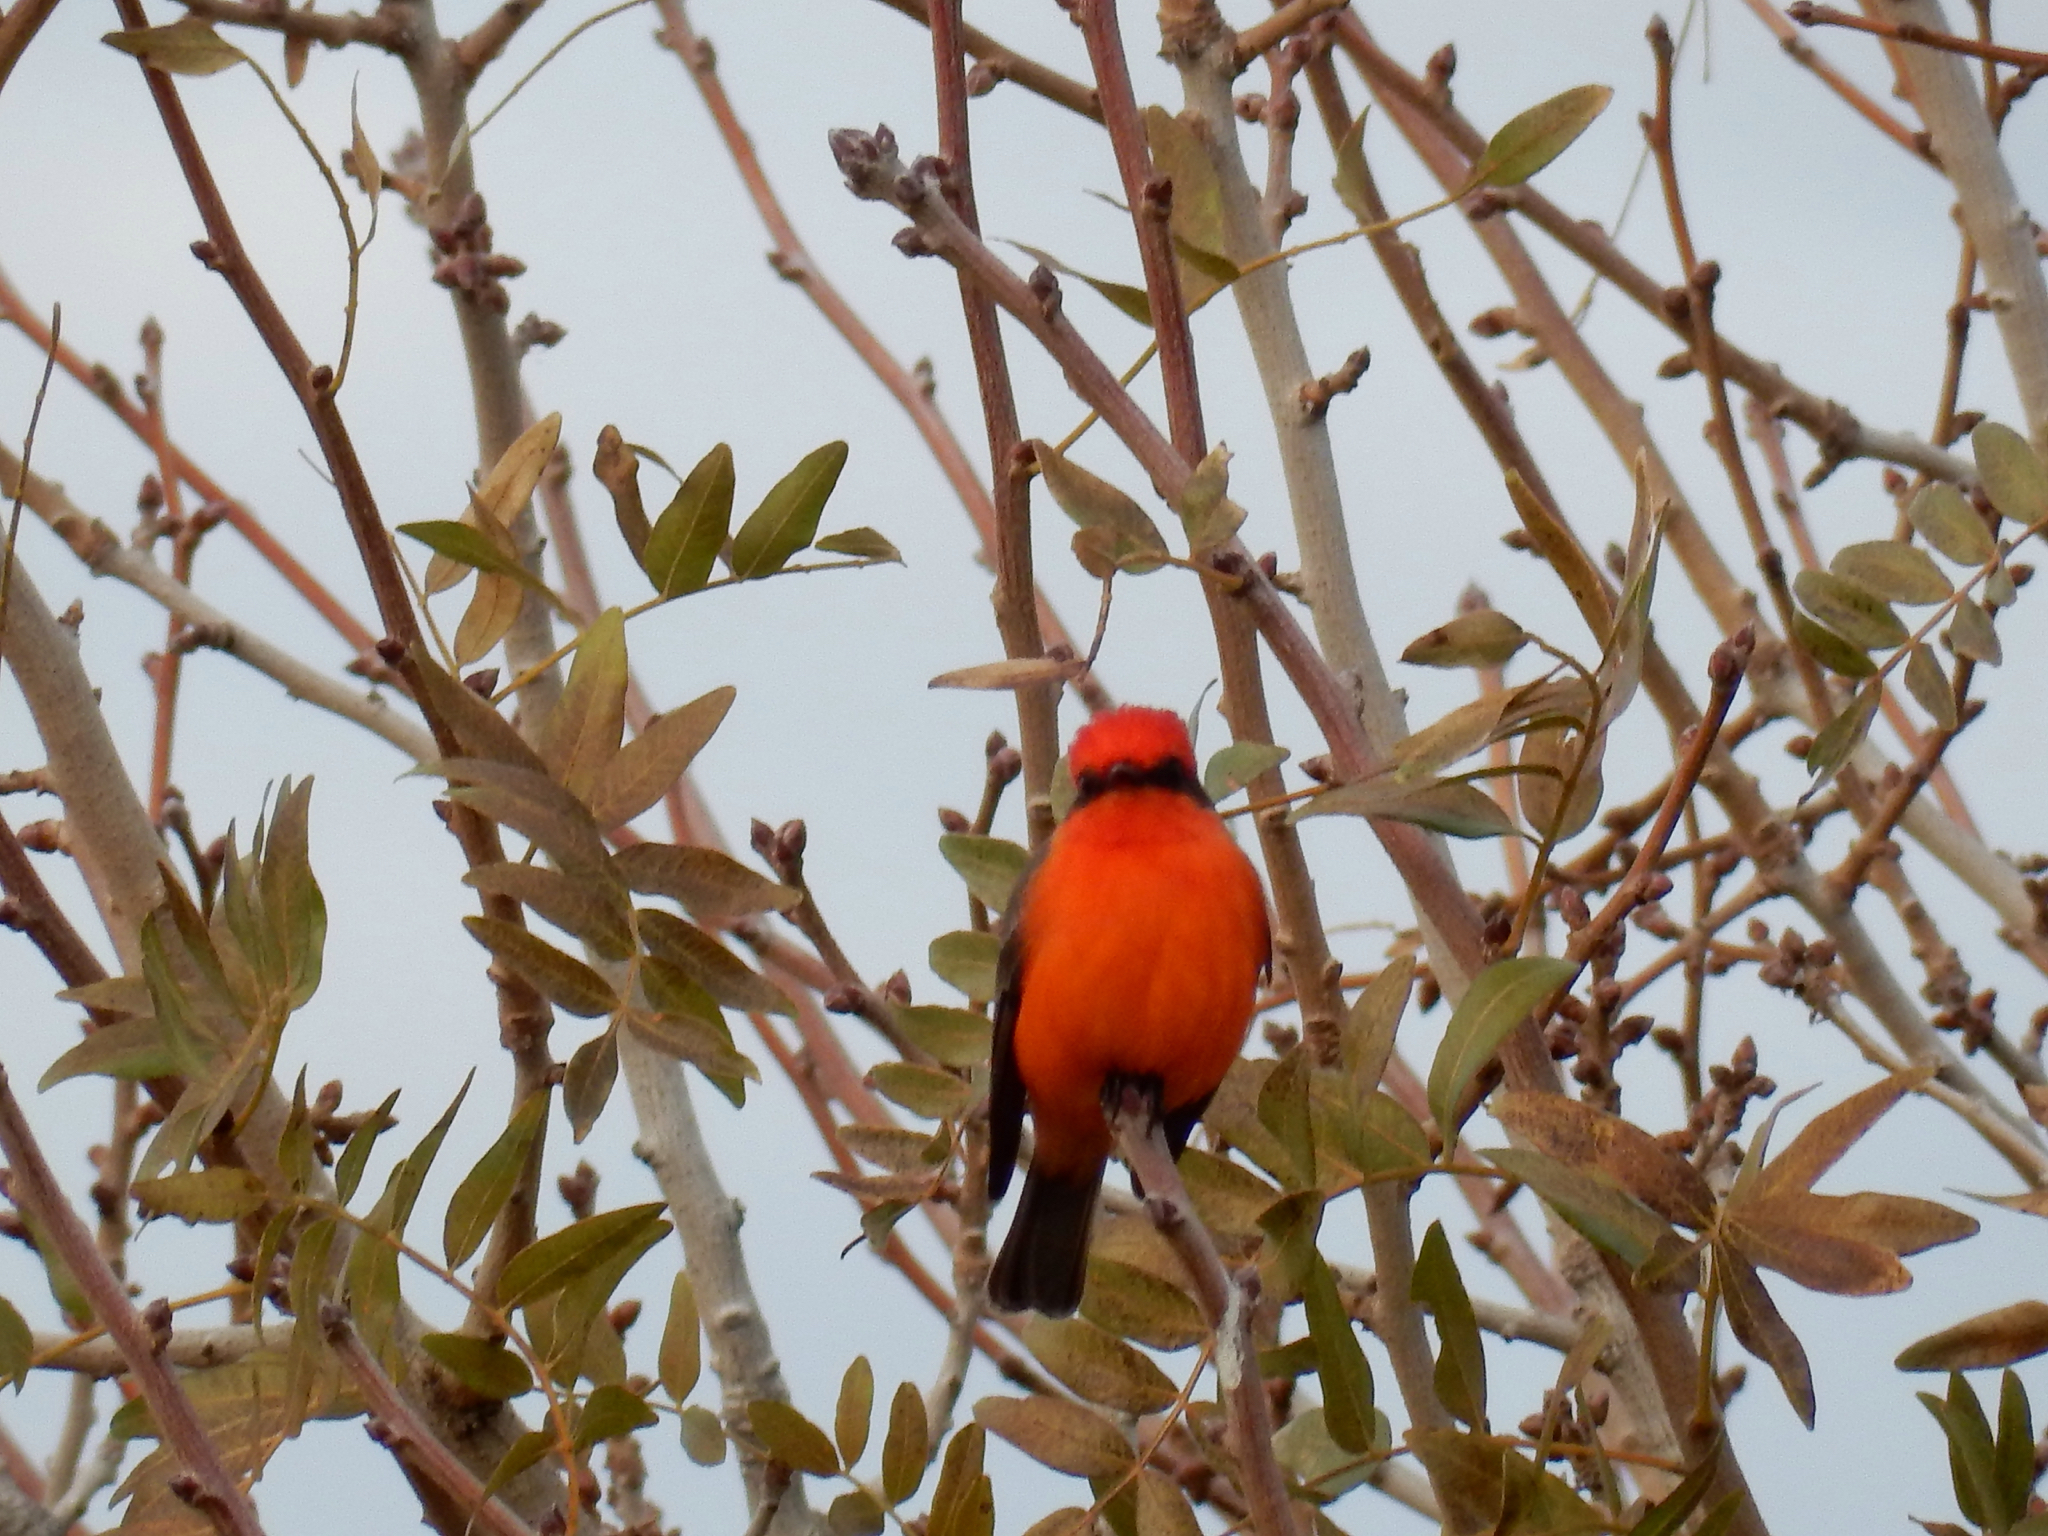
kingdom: Animalia
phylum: Chordata
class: Aves
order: Passeriformes
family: Tyrannidae
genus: Pyrocephalus
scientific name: Pyrocephalus rubinus
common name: Vermilion flycatcher
